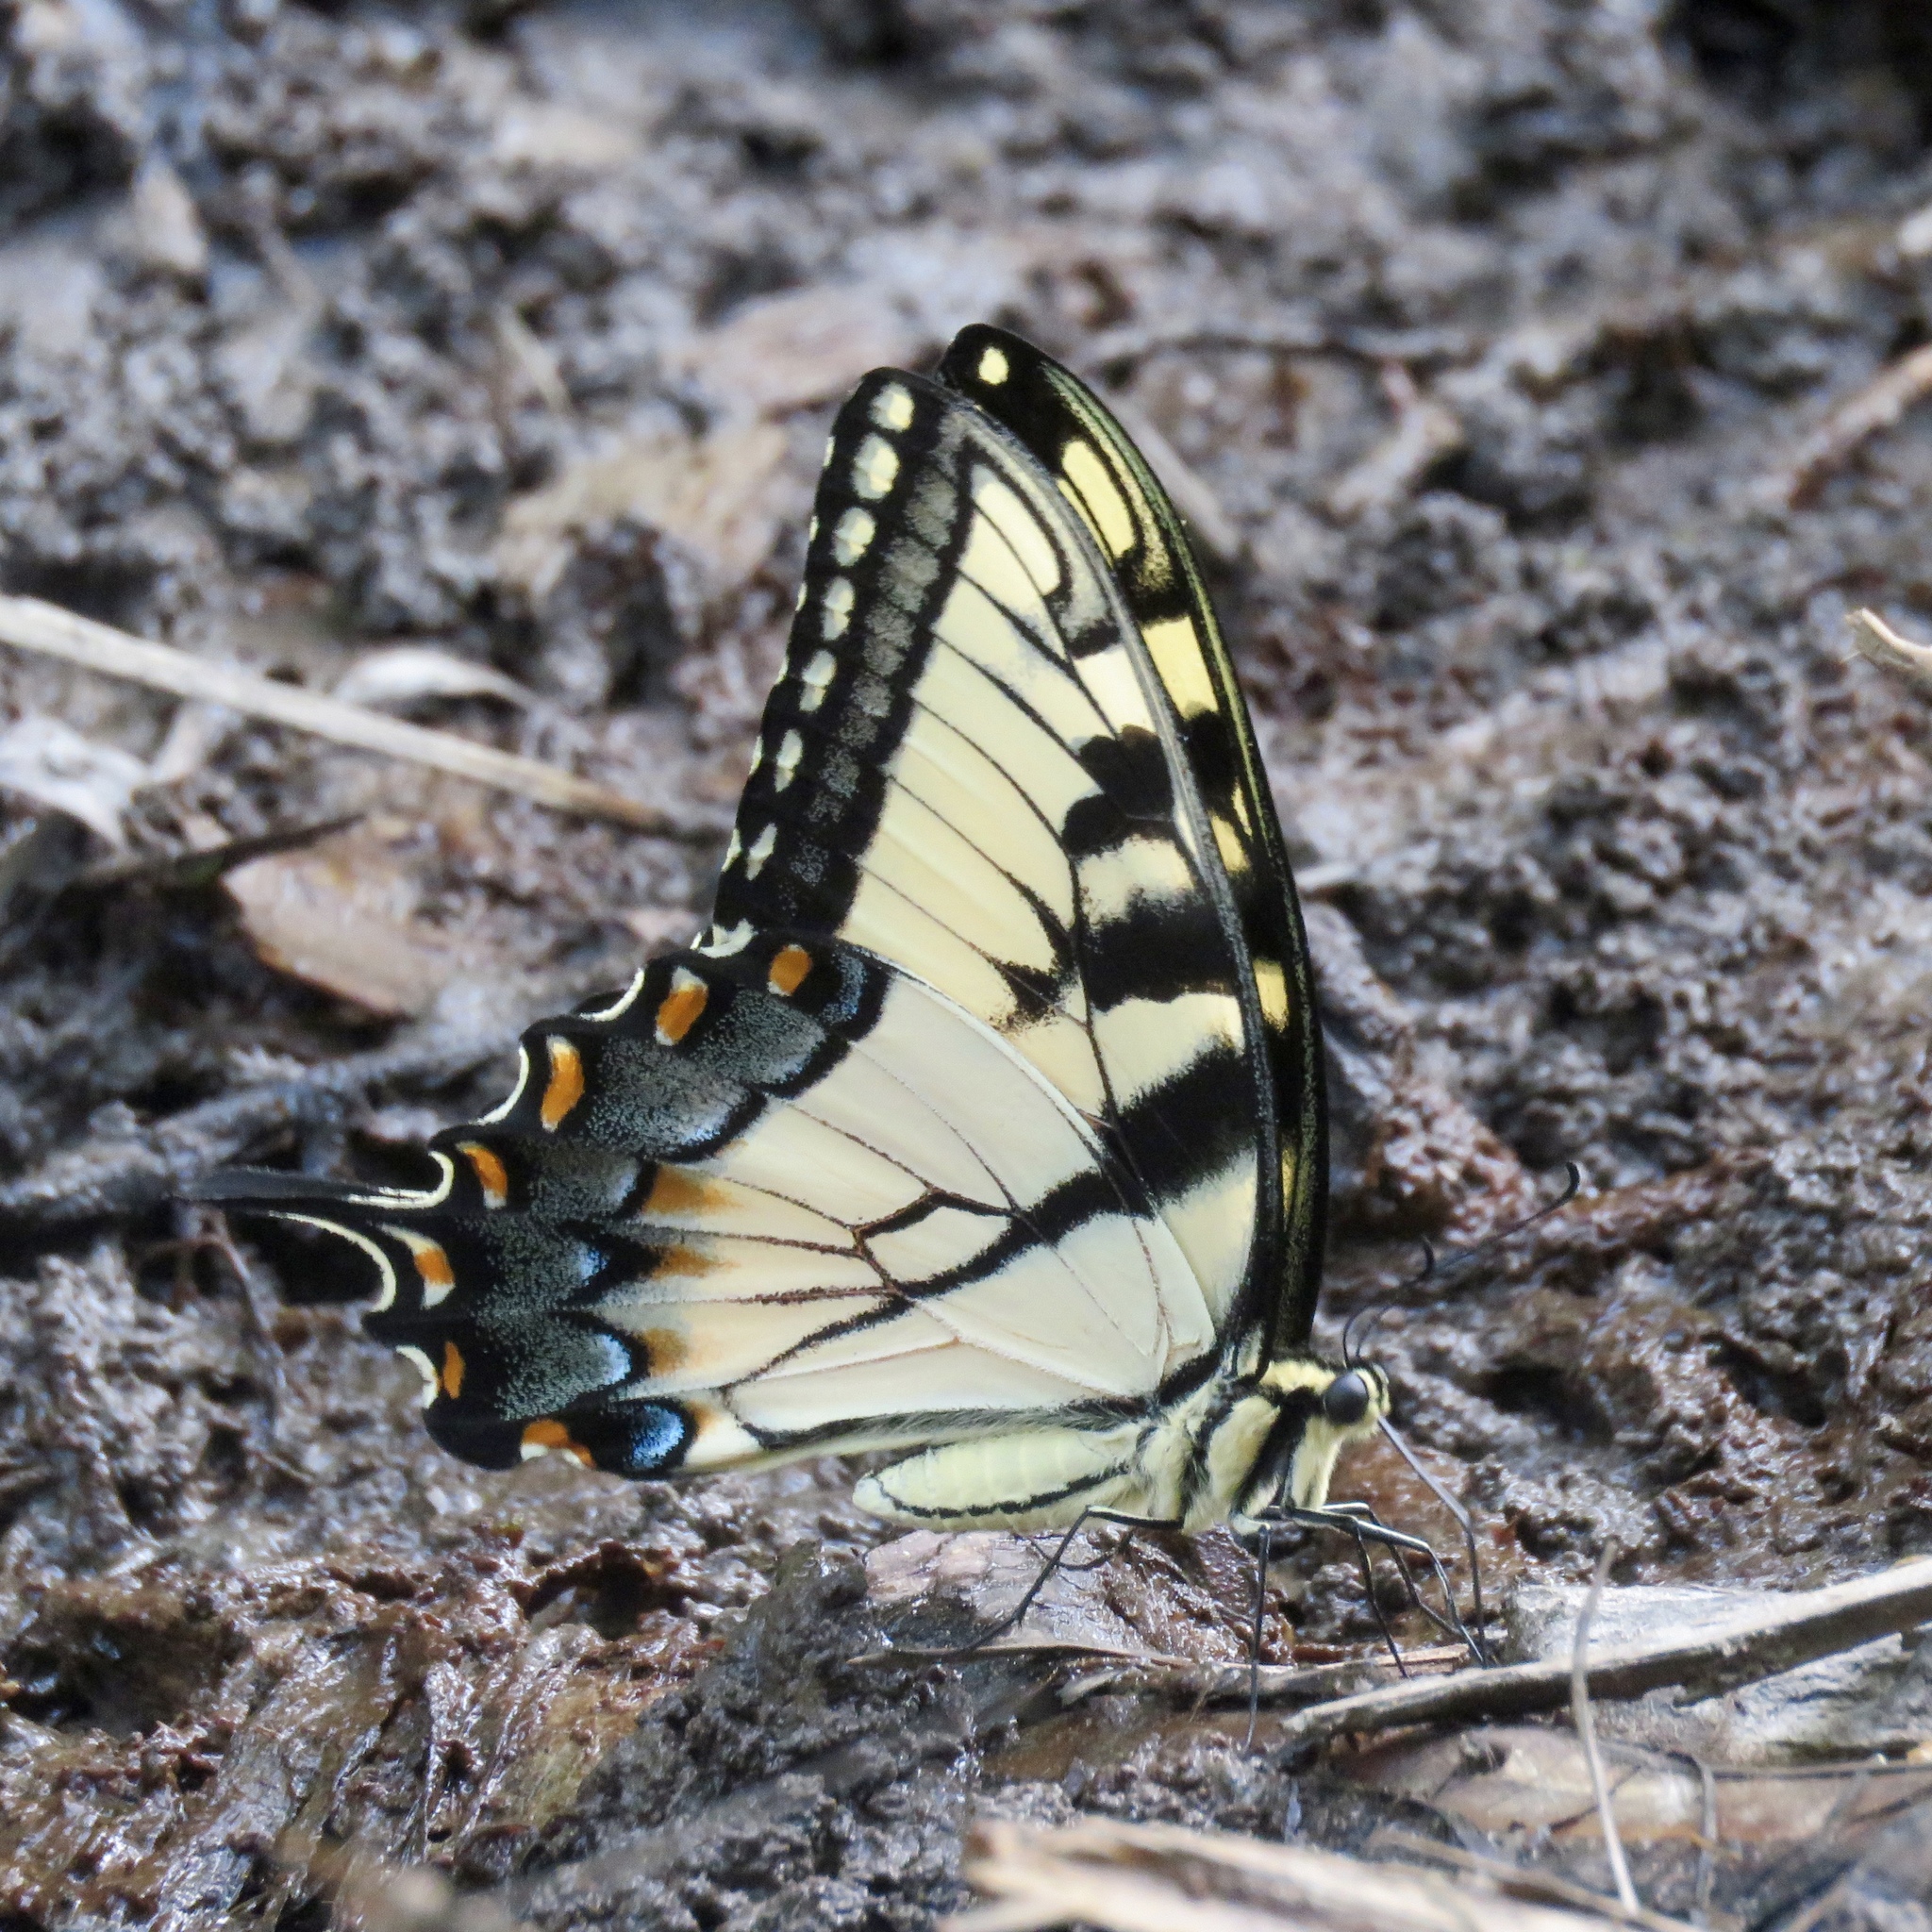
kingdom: Animalia
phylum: Arthropoda
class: Insecta
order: Lepidoptera
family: Papilionidae
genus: Papilio
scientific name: Papilio glaucus
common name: Tiger swallowtail
